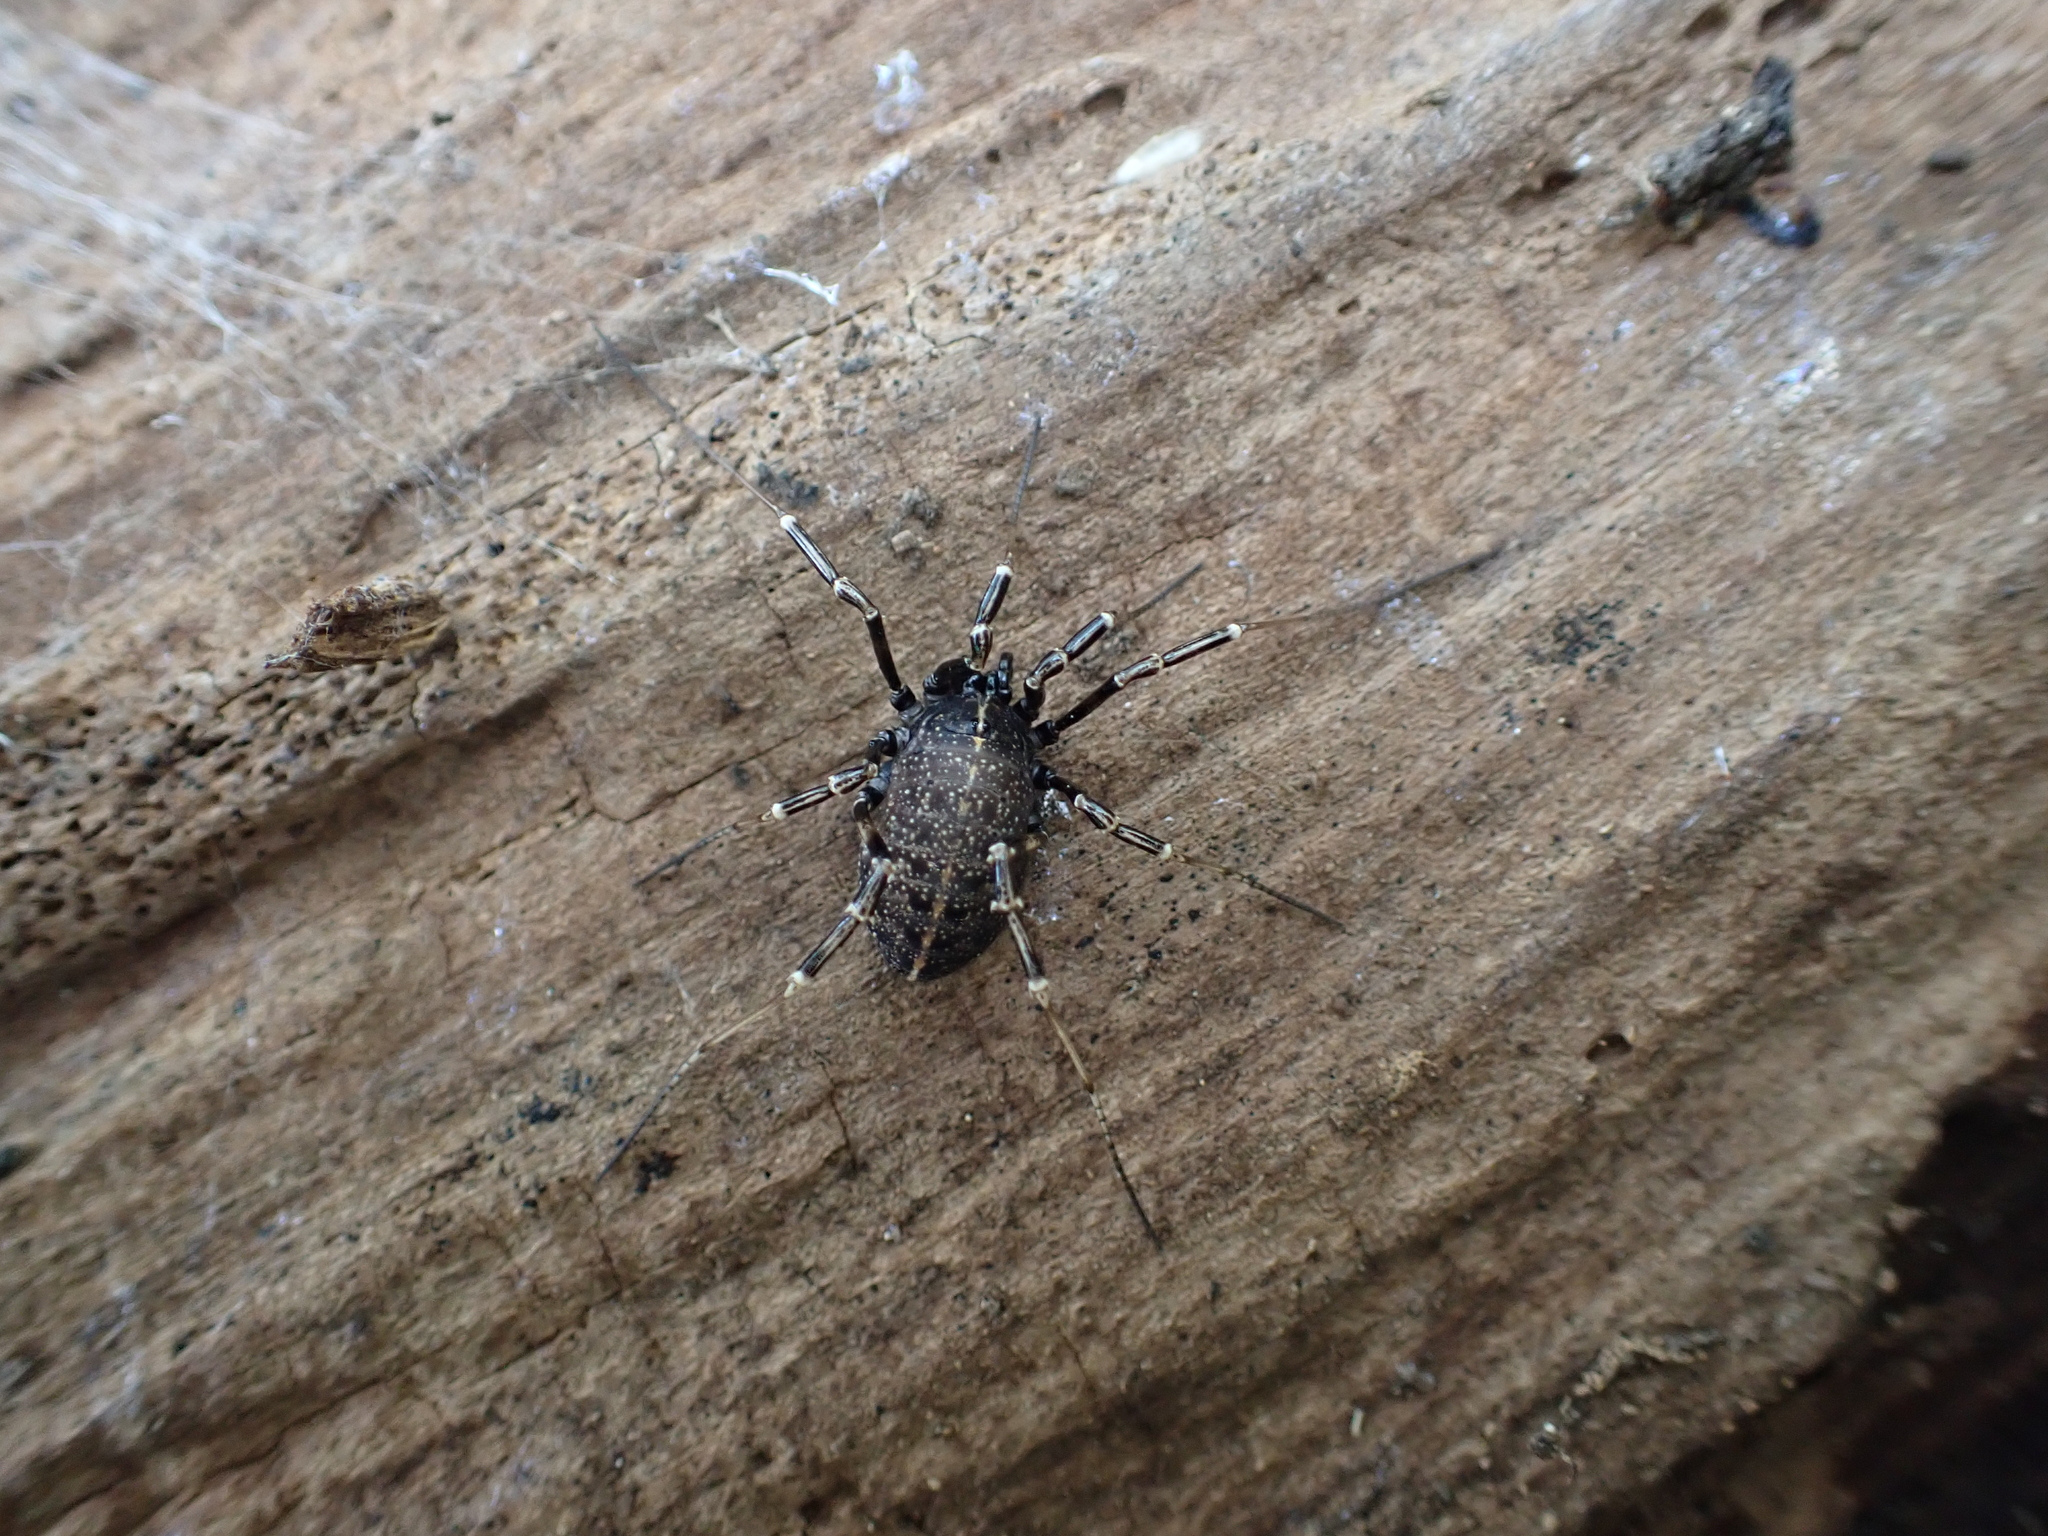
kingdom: Animalia
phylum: Arthropoda
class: Arachnida
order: Opiliones
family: Phalangiidae
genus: Egaenus
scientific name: Egaenus convexus
